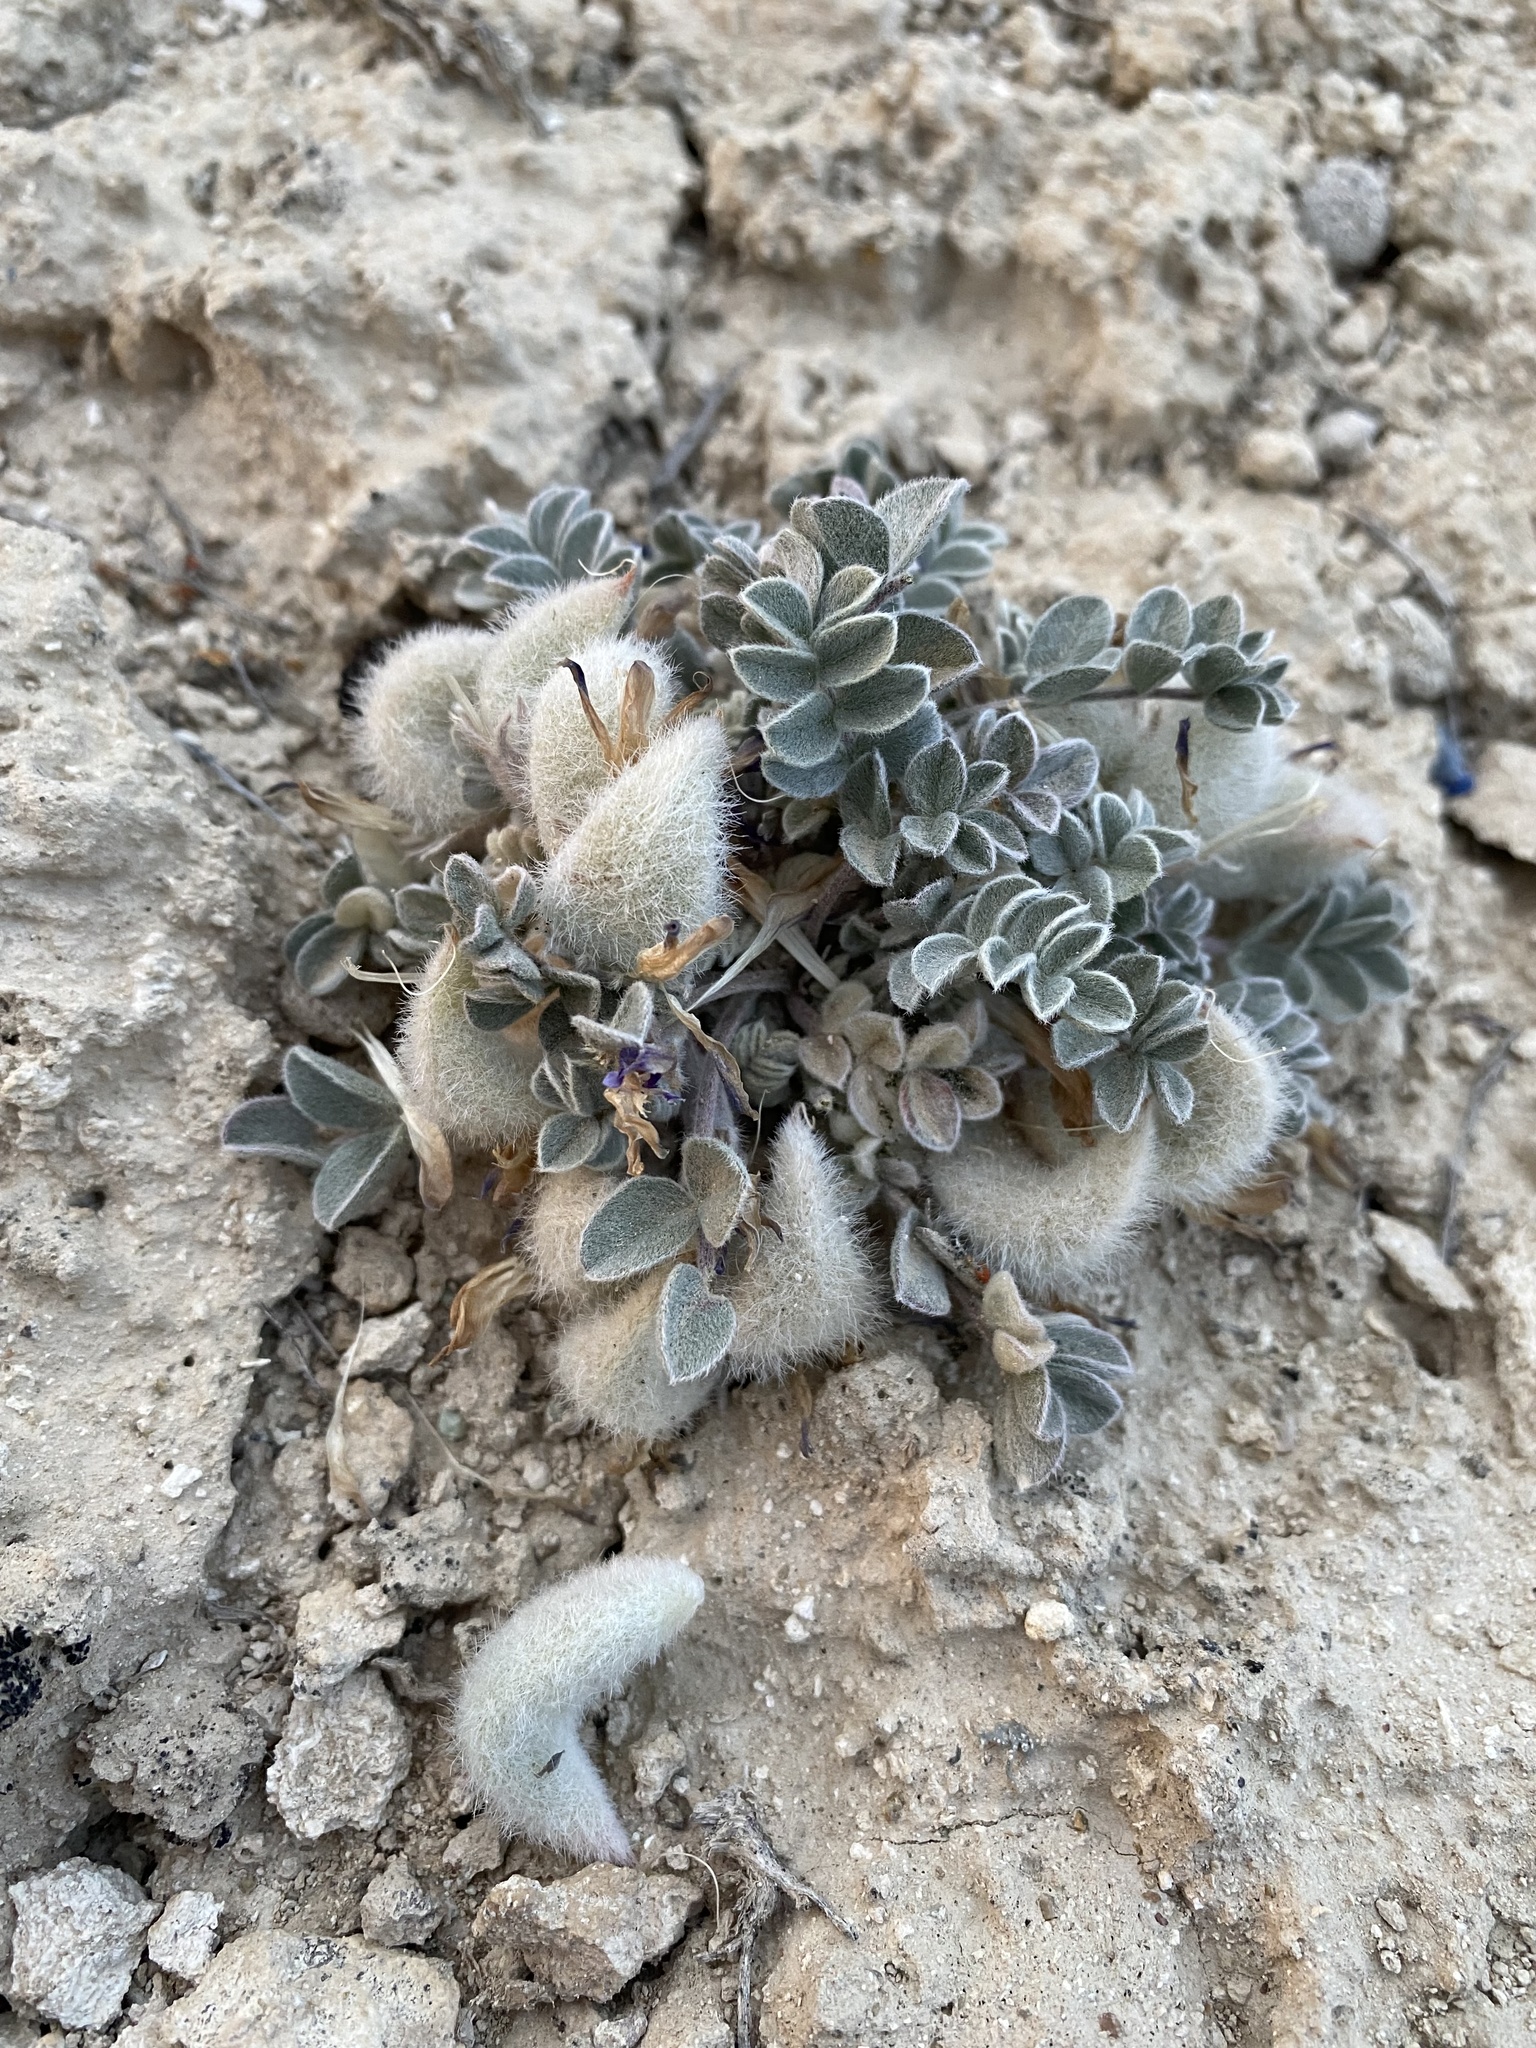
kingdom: Plantae
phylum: Tracheophyta
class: Magnoliopsida
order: Fabales
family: Fabaceae
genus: Astragalus
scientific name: Astragalus newberryi
